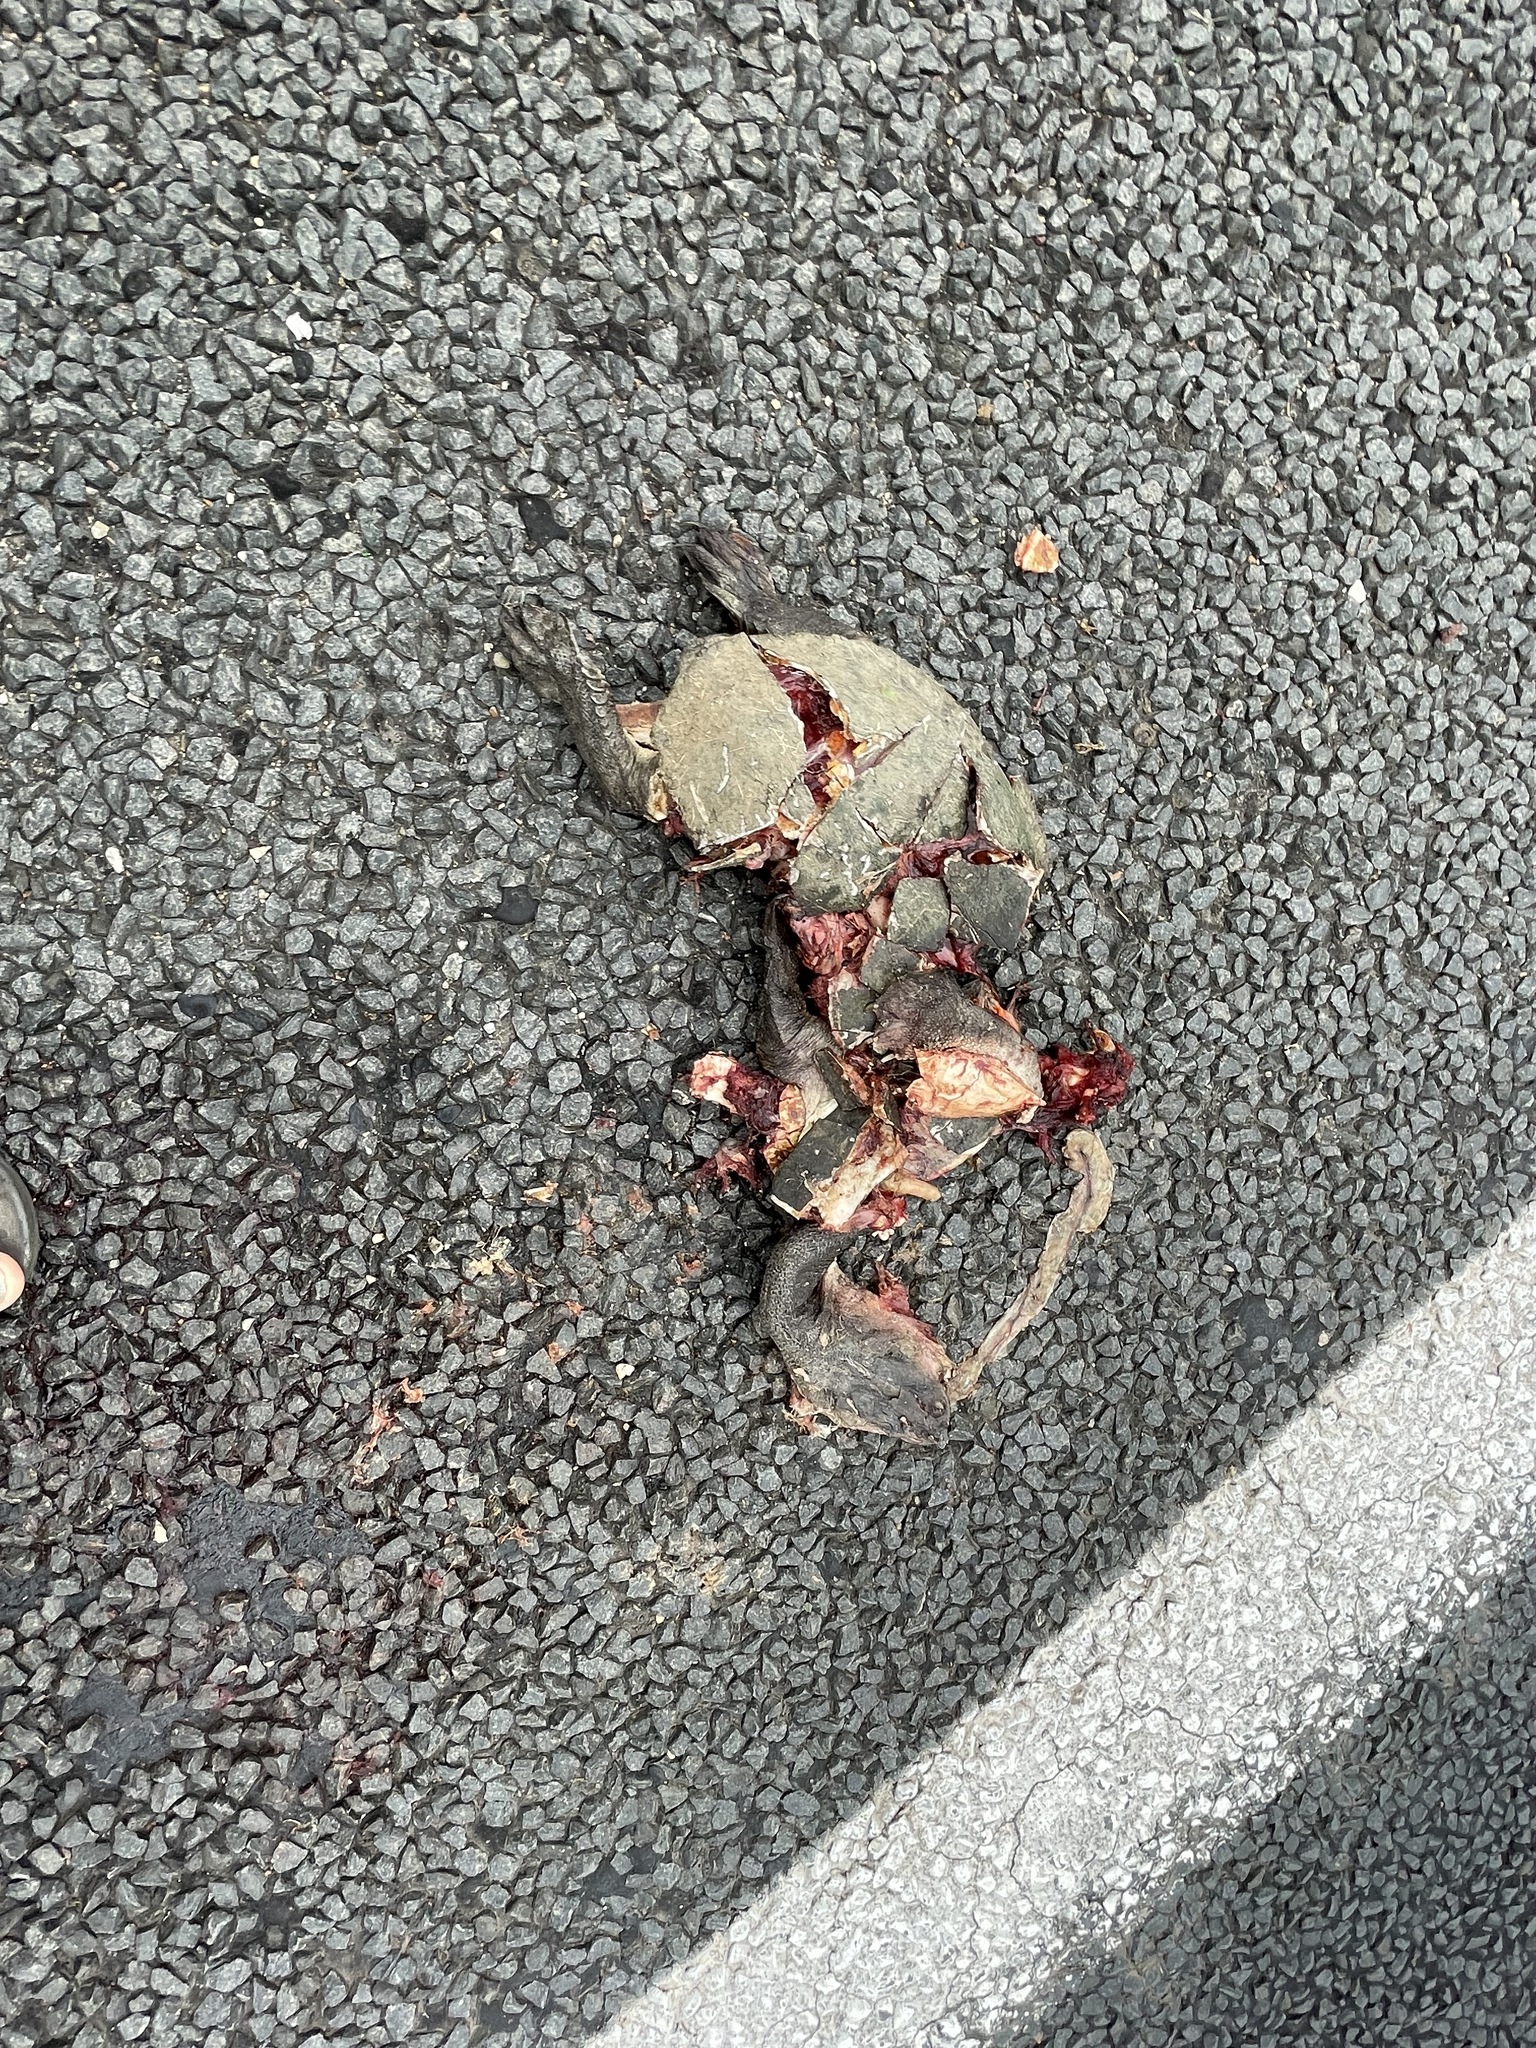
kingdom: Animalia
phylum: Chordata
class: Testudines
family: Chelidae
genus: Chelodina
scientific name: Chelodina expansa
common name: Giant snakeneck turtle
